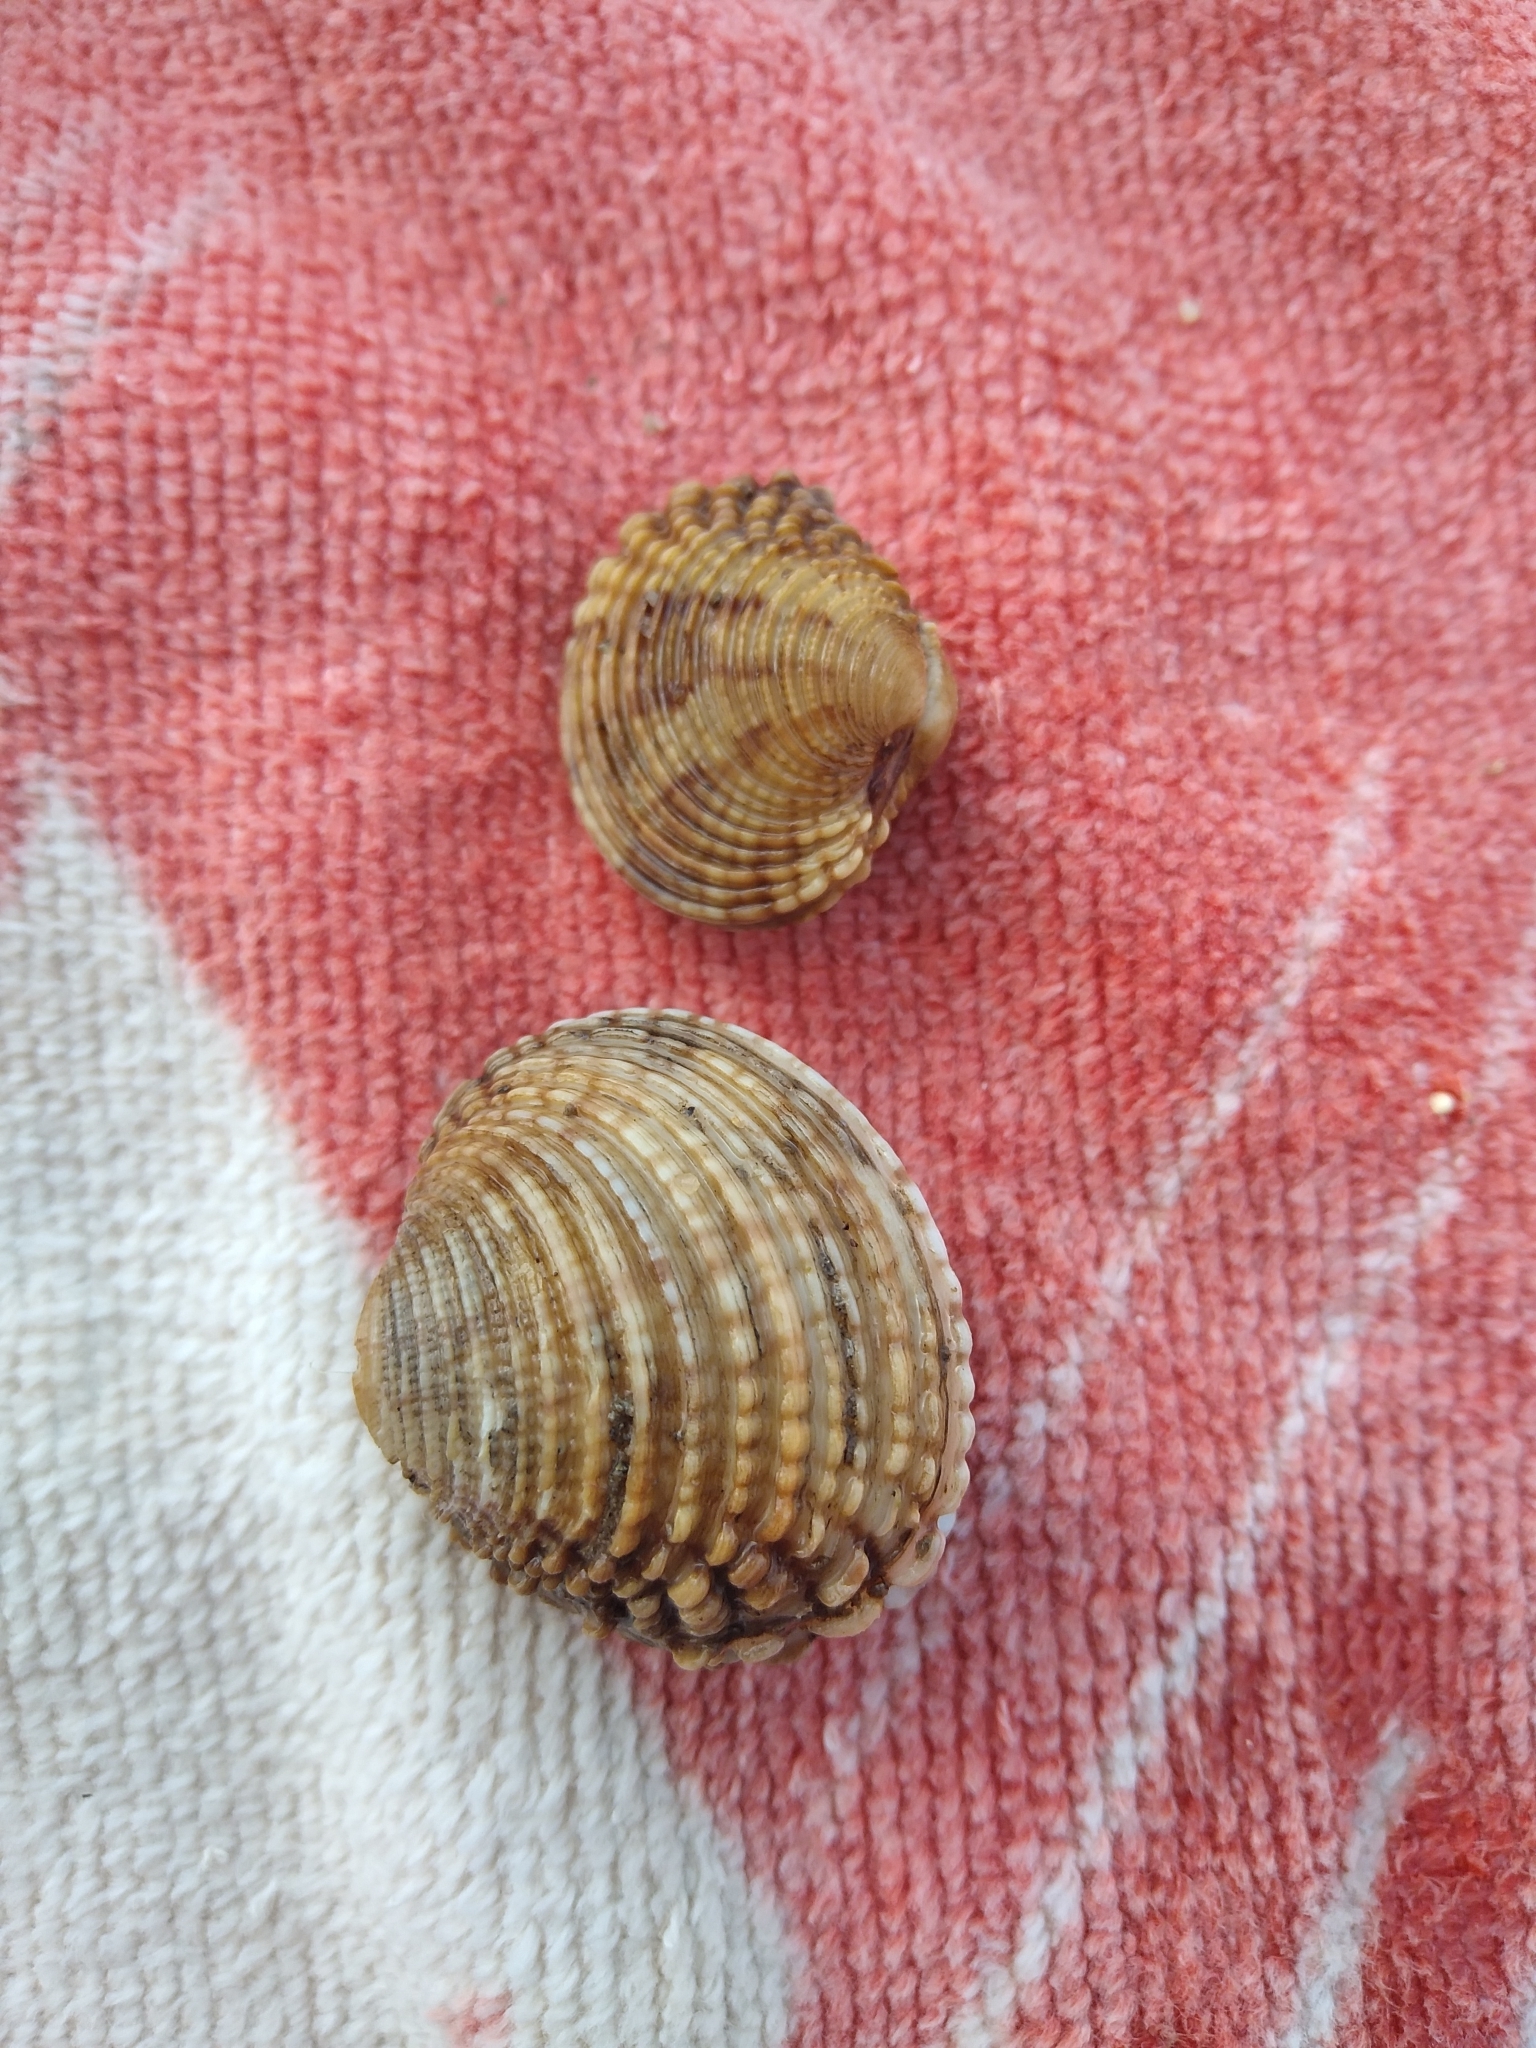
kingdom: Animalia
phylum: Mollusca
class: Bivalvia
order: Venerida
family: Veneridae
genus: Venus
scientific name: Venus verrucosa
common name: Warty venus
